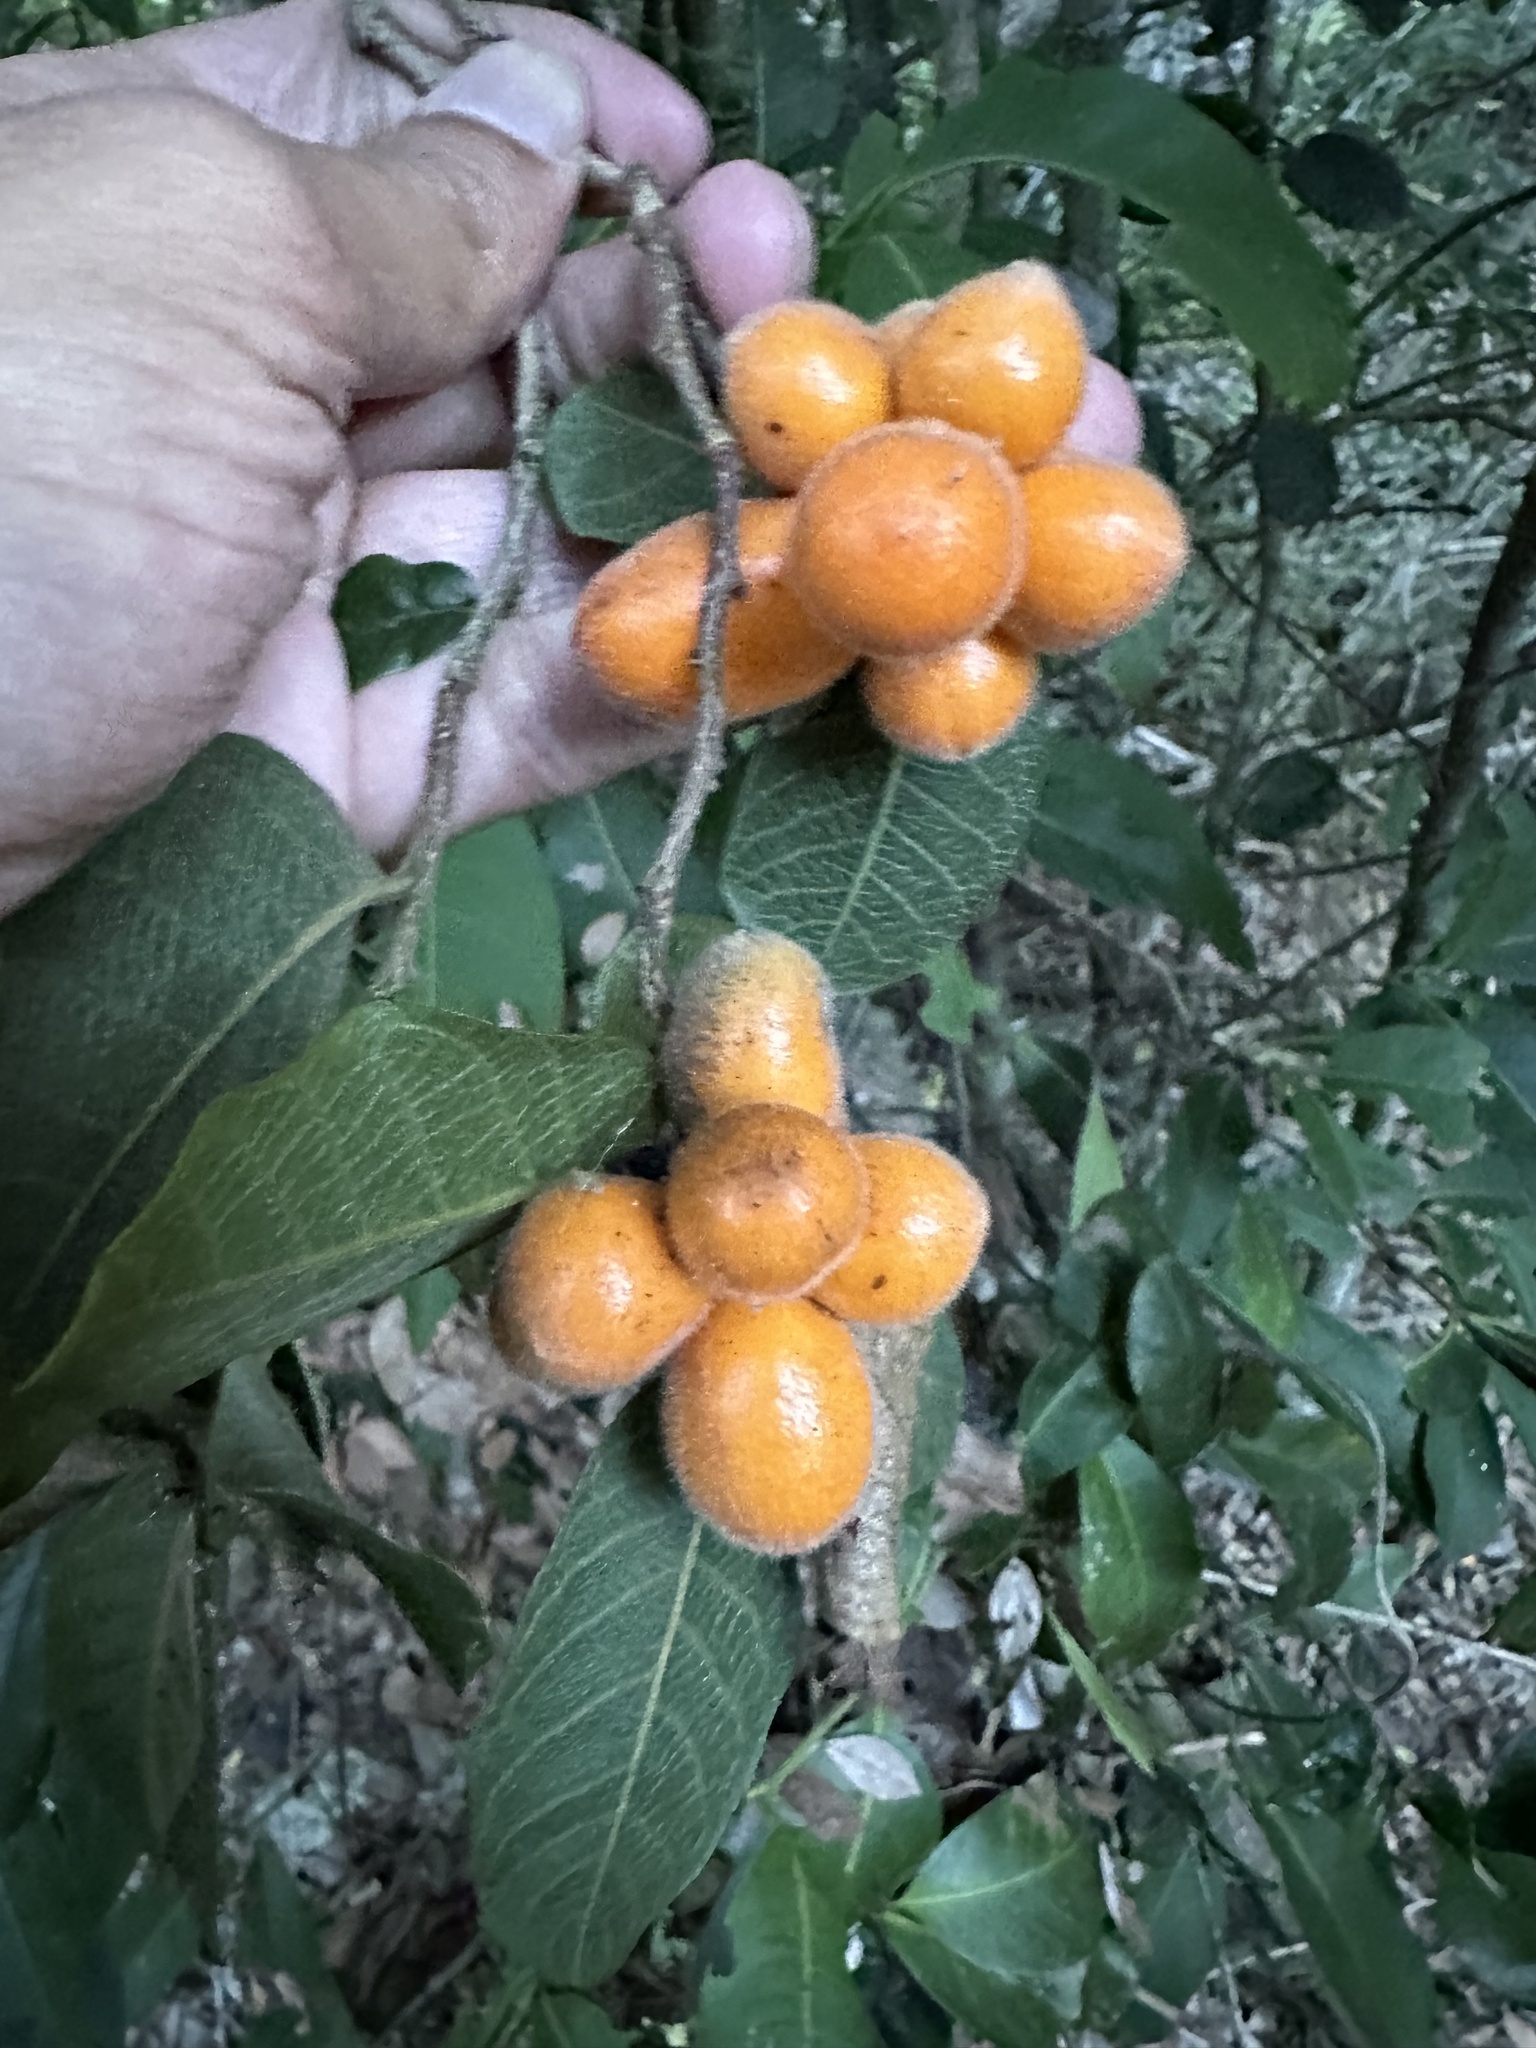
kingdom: Plantae
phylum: Tracheophyta
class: Magnoliopsida
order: Magnoliales
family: Annonaceae
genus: Fitzalania
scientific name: Fitzalania heteropetala
